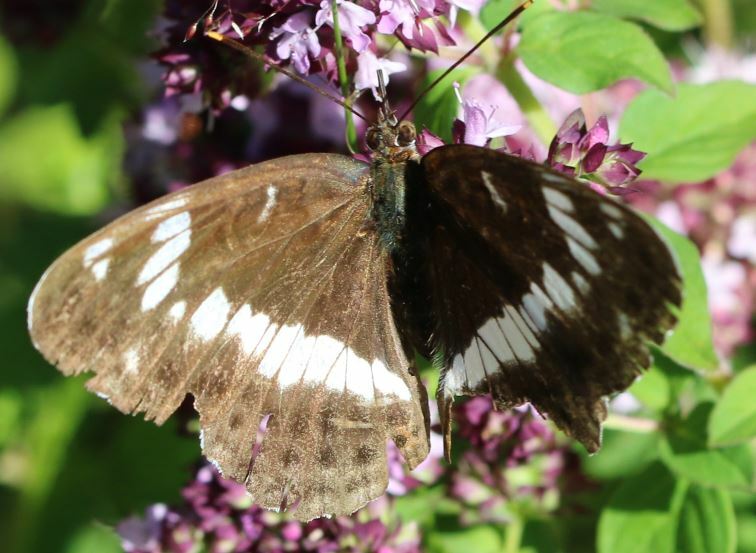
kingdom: Animalia
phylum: Arthropoda
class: Insecta
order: Lepidoptera
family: Nymphalidae
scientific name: Nymphalidae
